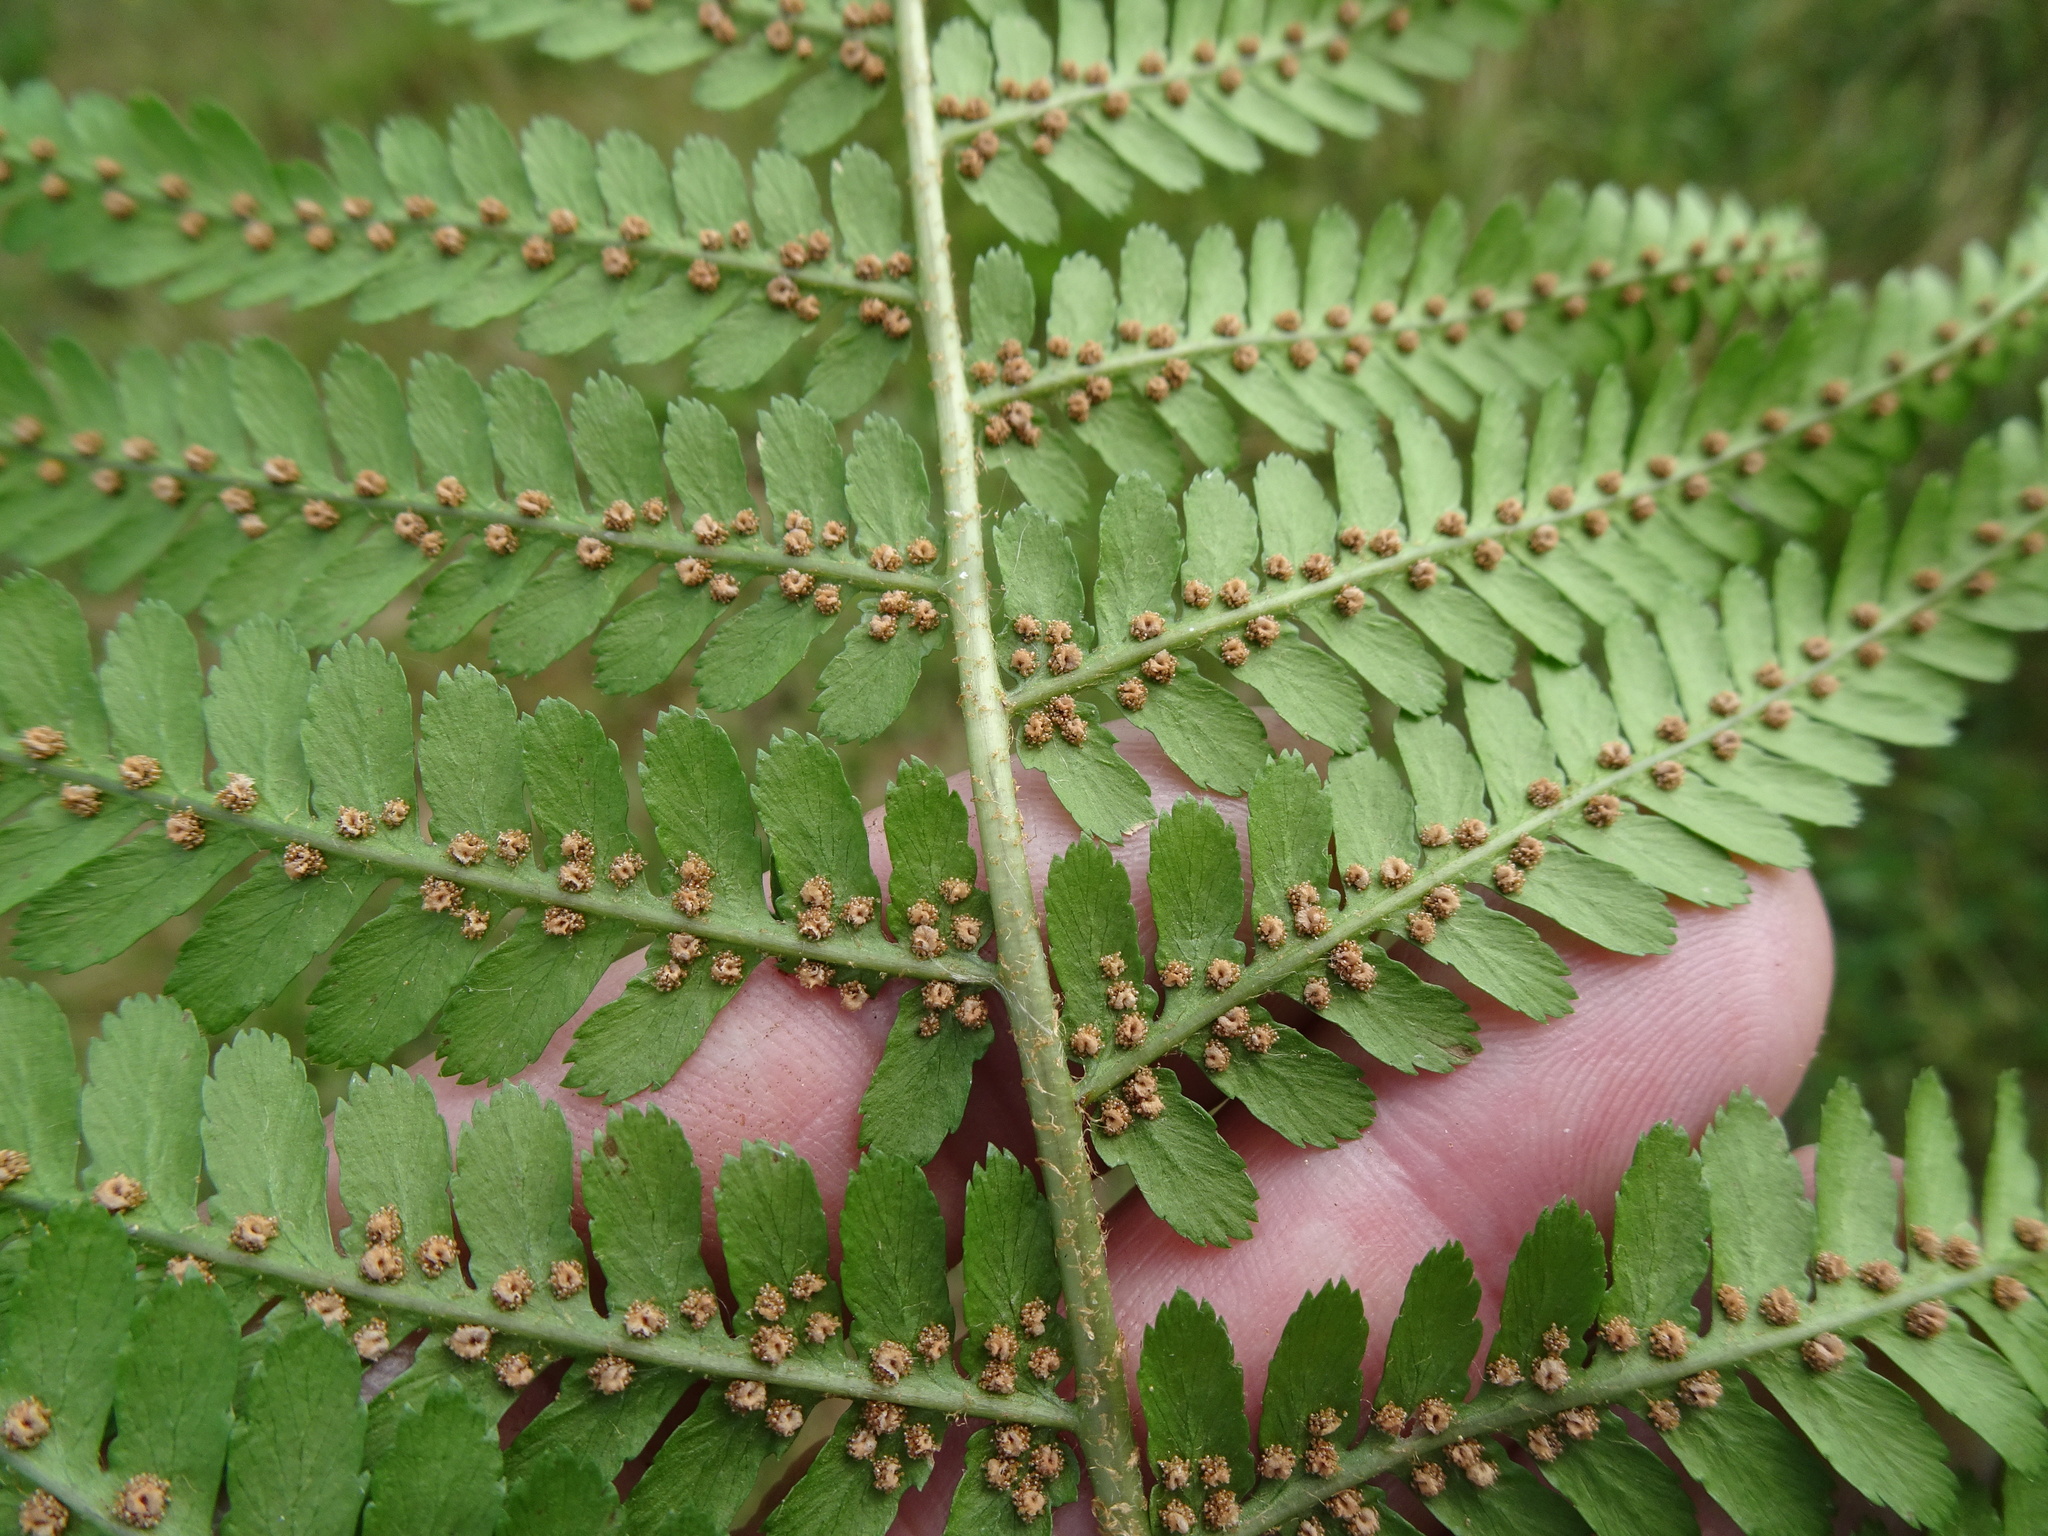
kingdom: Plantae
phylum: Tracheophyta
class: Polypodiopsida
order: Polypodiales
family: Dryopteridaceae
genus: Dryopteris
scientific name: Dryopteris filix-mas
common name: Male fern
